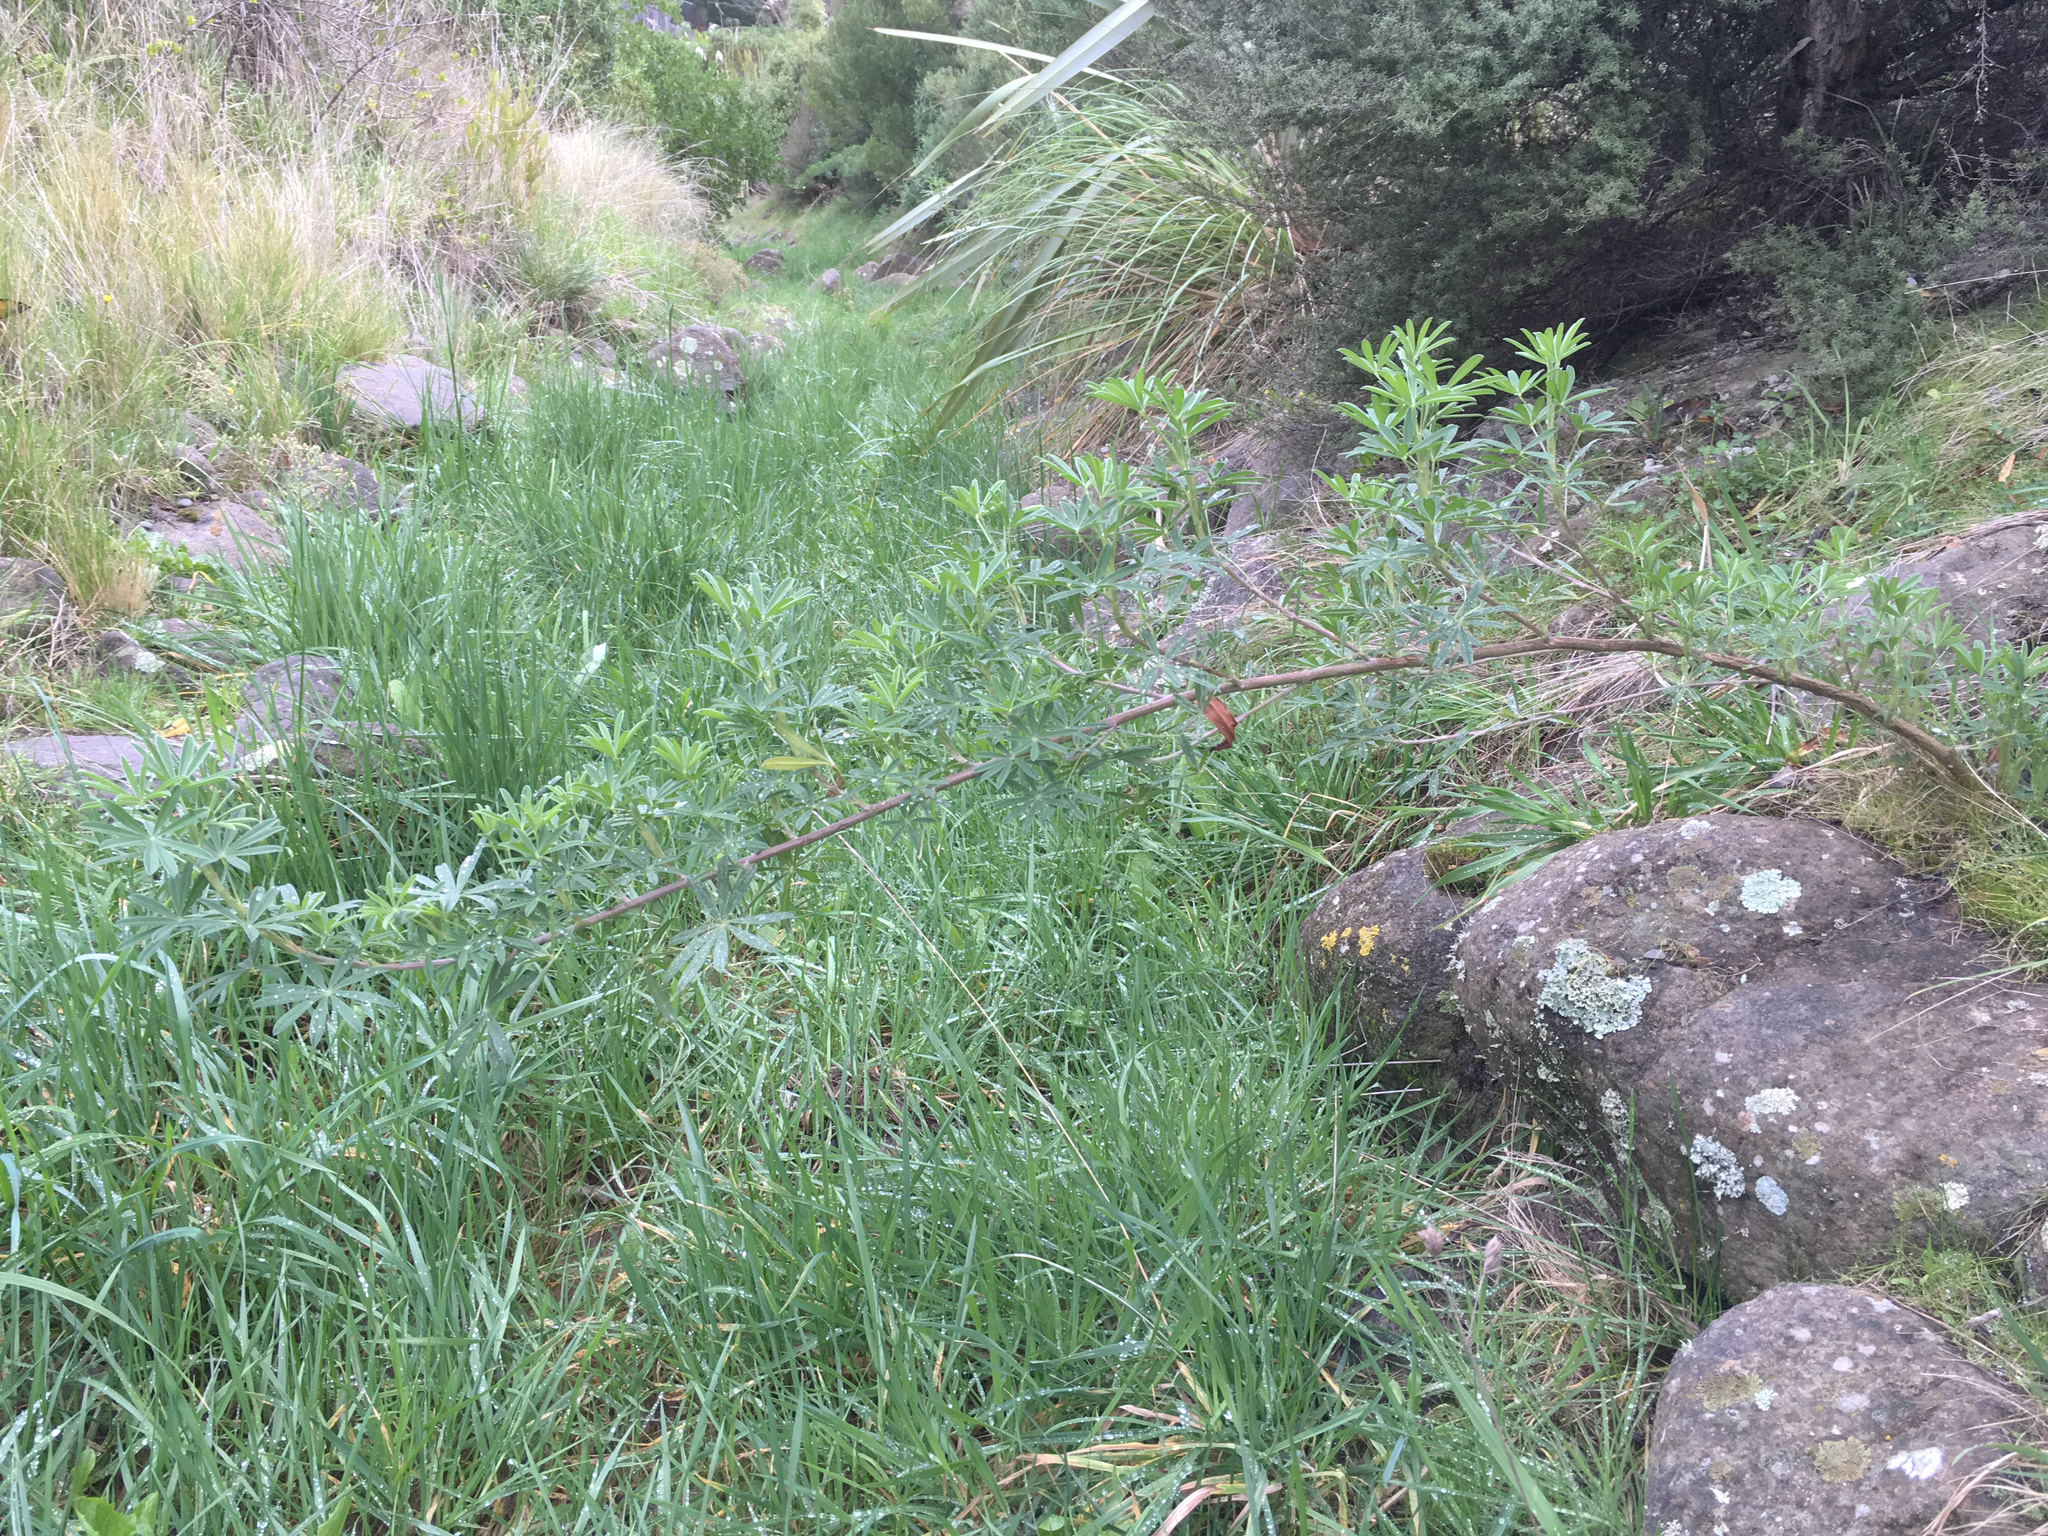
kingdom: Plantae
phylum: Tracheophyta
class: Magnoliopsida
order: Fabales
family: Fabaceae
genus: Lupinus
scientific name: Lupinus arboreus
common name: Yellow bush lupine
